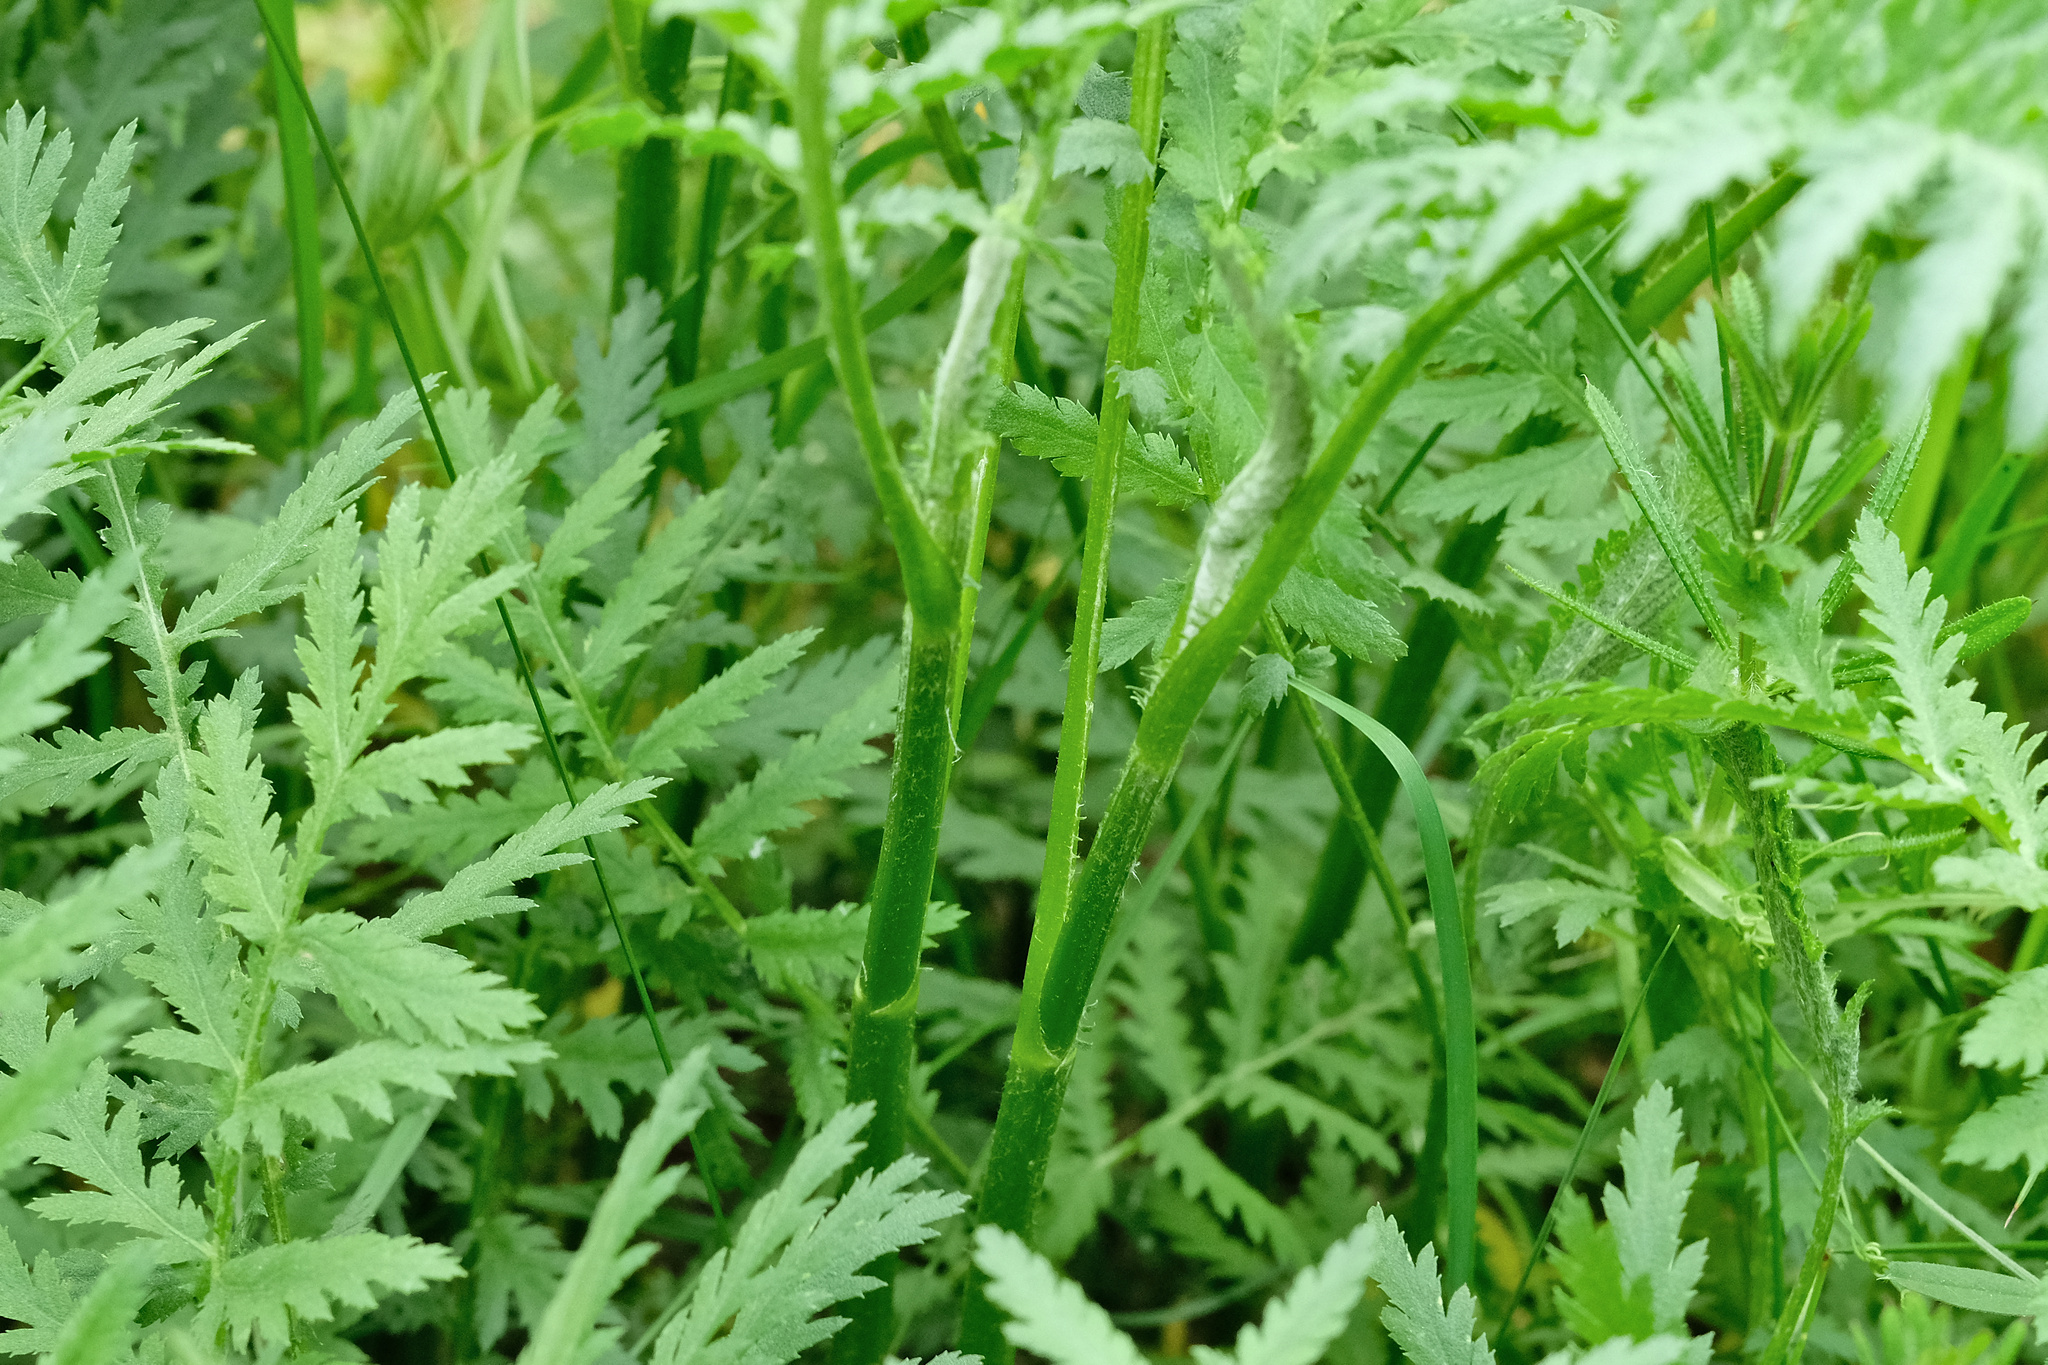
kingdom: Plantae
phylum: Tracheophyta
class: Magnoliopsida
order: Asterales
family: Asteraceae
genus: Tanacetum
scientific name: Tanacetum vulgare
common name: Common tansy
